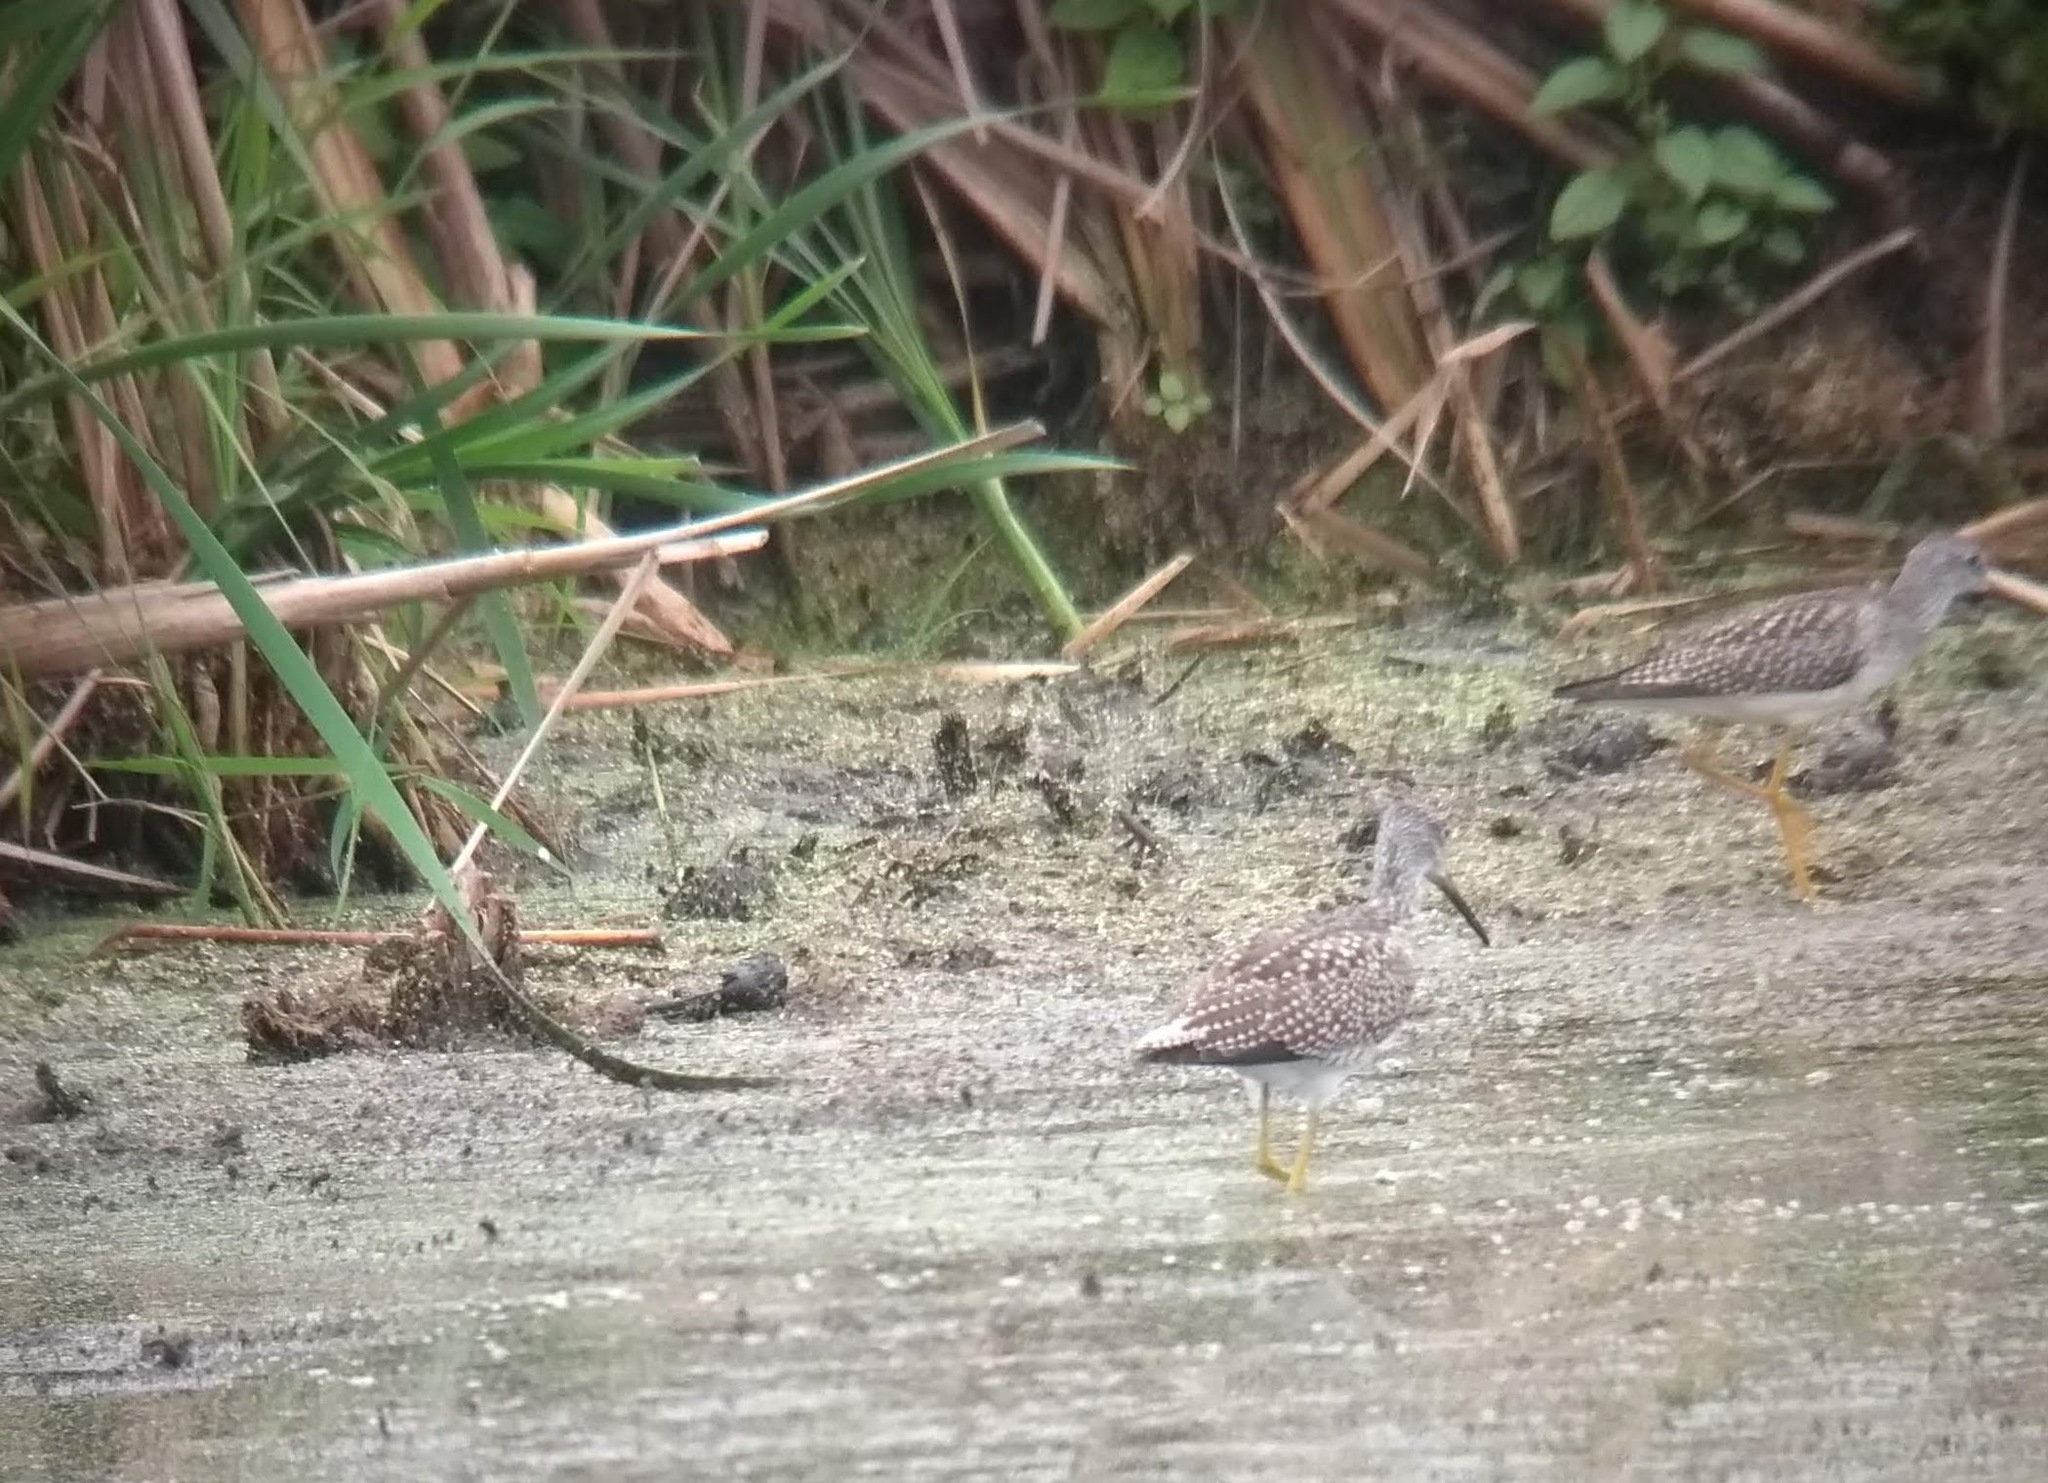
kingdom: Animalia
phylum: Chordata
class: Aves
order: Charadriiformes
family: Scolopacidae
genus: Tringa
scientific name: Tringa flavipes
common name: Lesser yellowlegs
